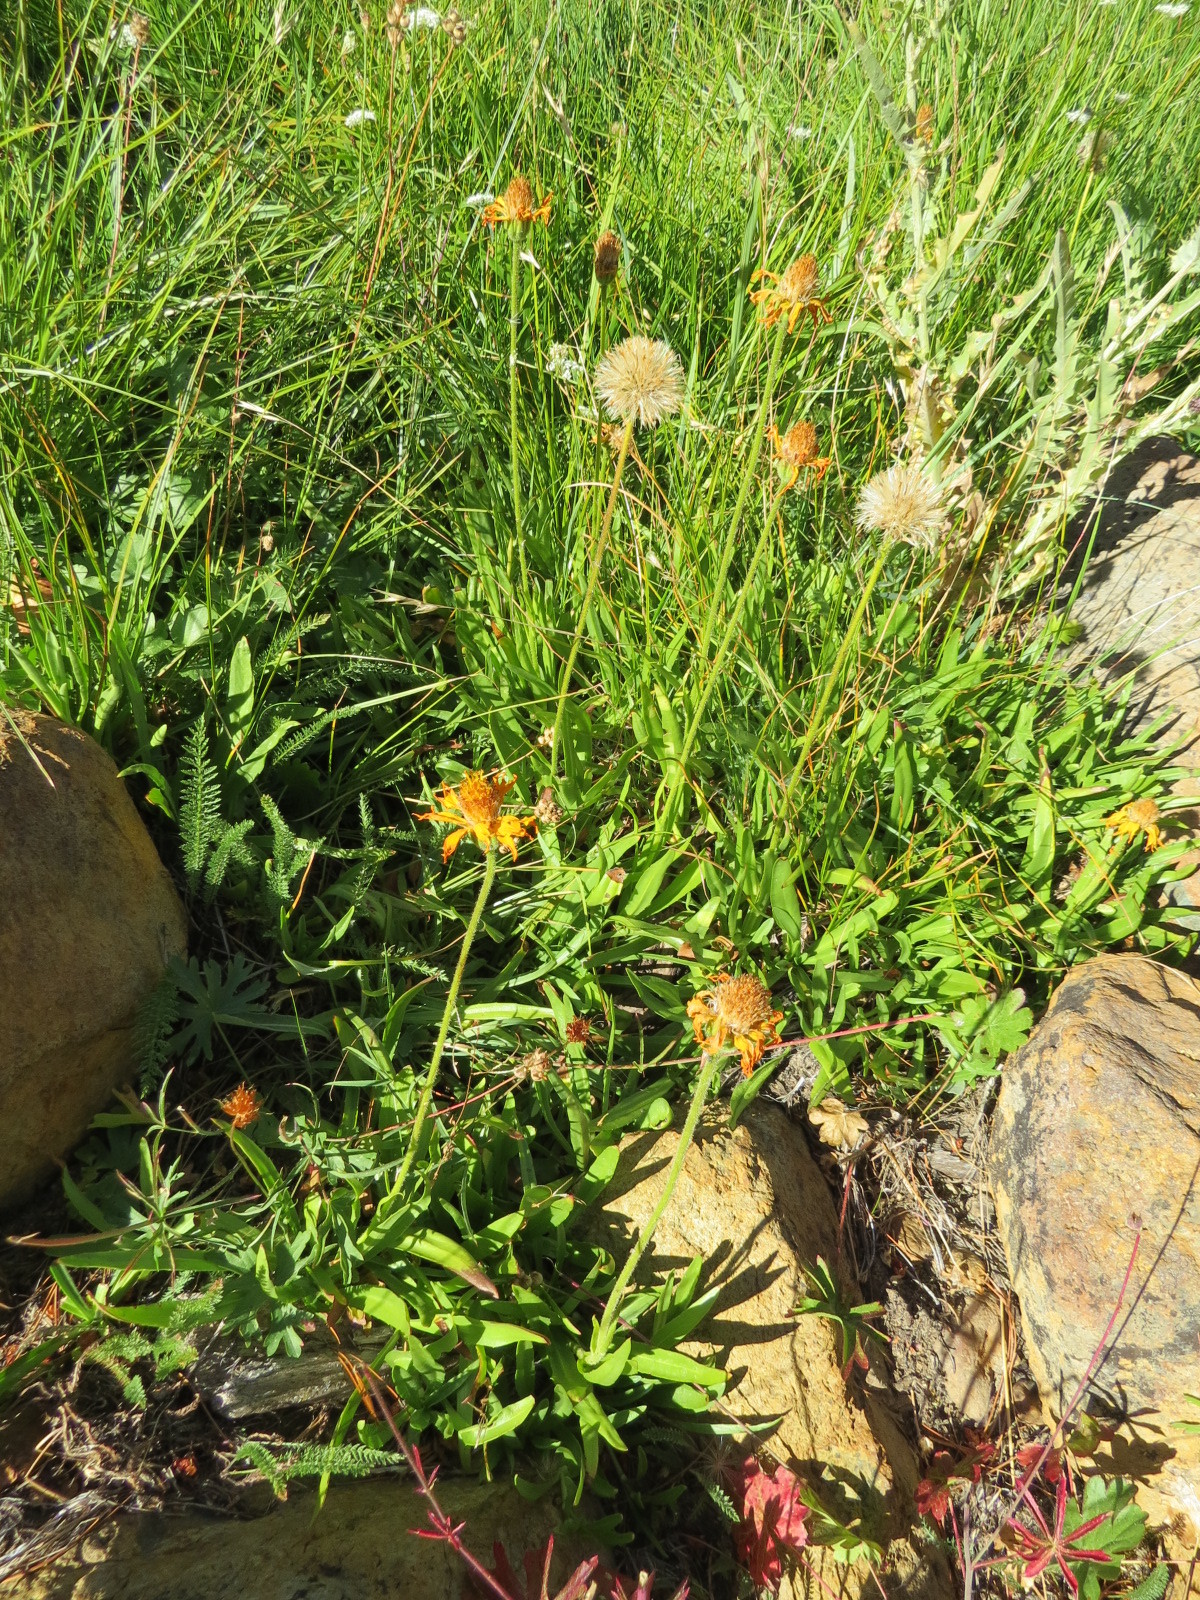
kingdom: Plantae
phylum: Tracheophyta
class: Magnoliopsida
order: Asterales
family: Asteraceae
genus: Raillardella
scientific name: Raillardella pringlei
